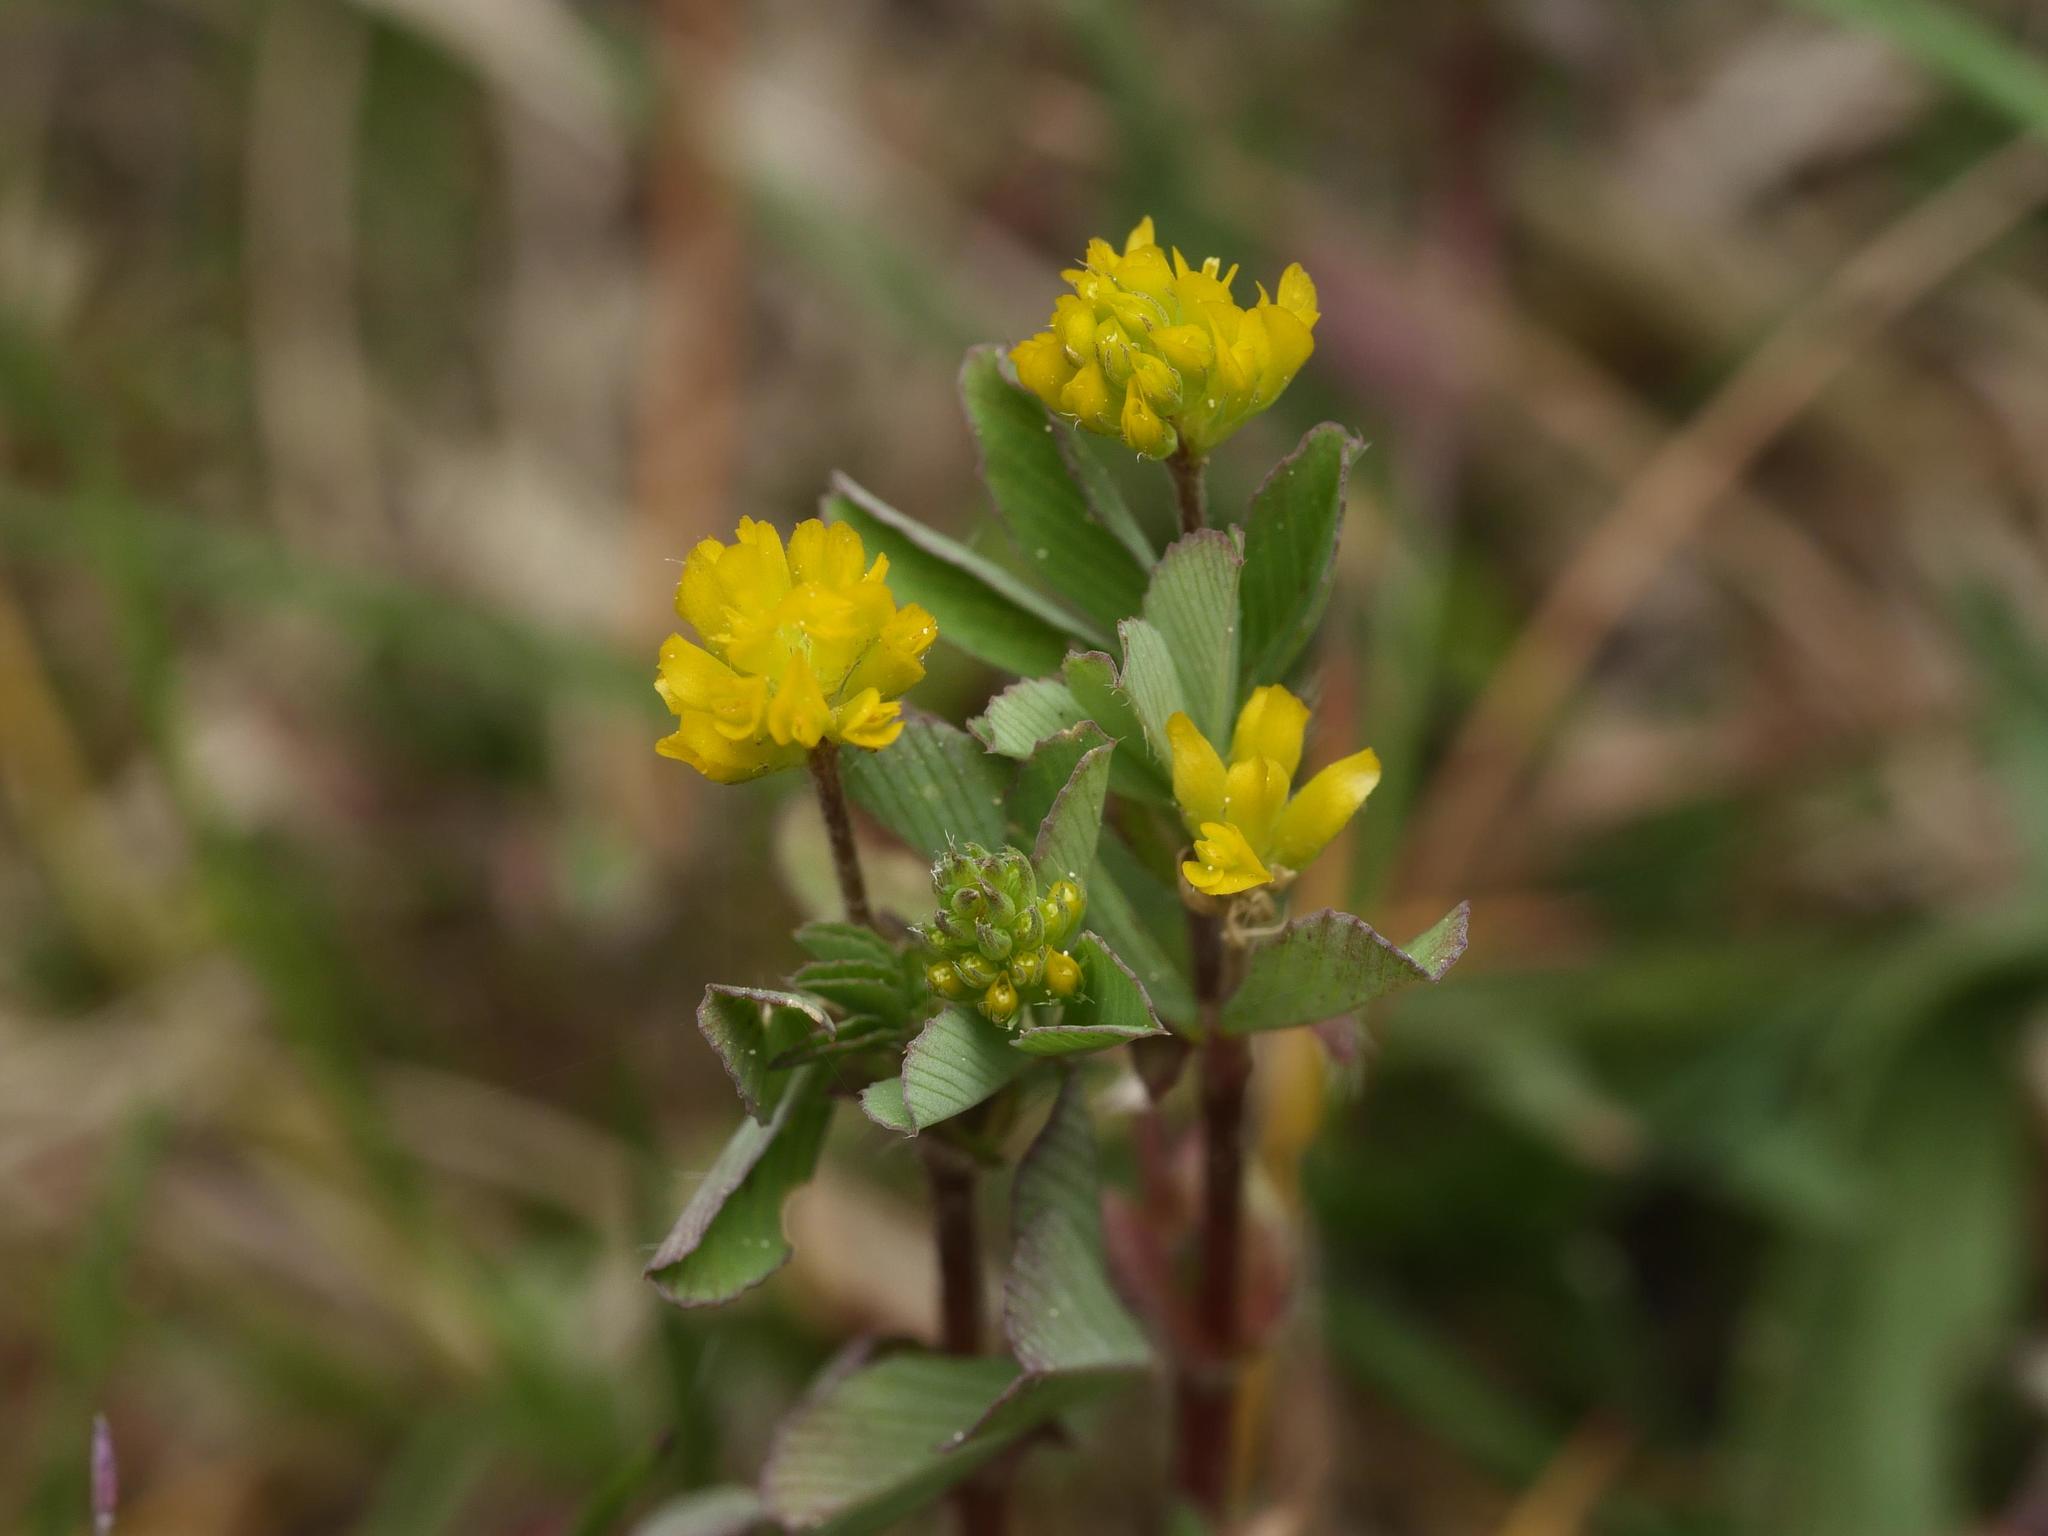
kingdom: Plantae
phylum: Tracheophyta
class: Magnoliopsida
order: Fabales
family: Fabaceae
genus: Trifolium
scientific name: Trifolium dubium
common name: Suckling clover
